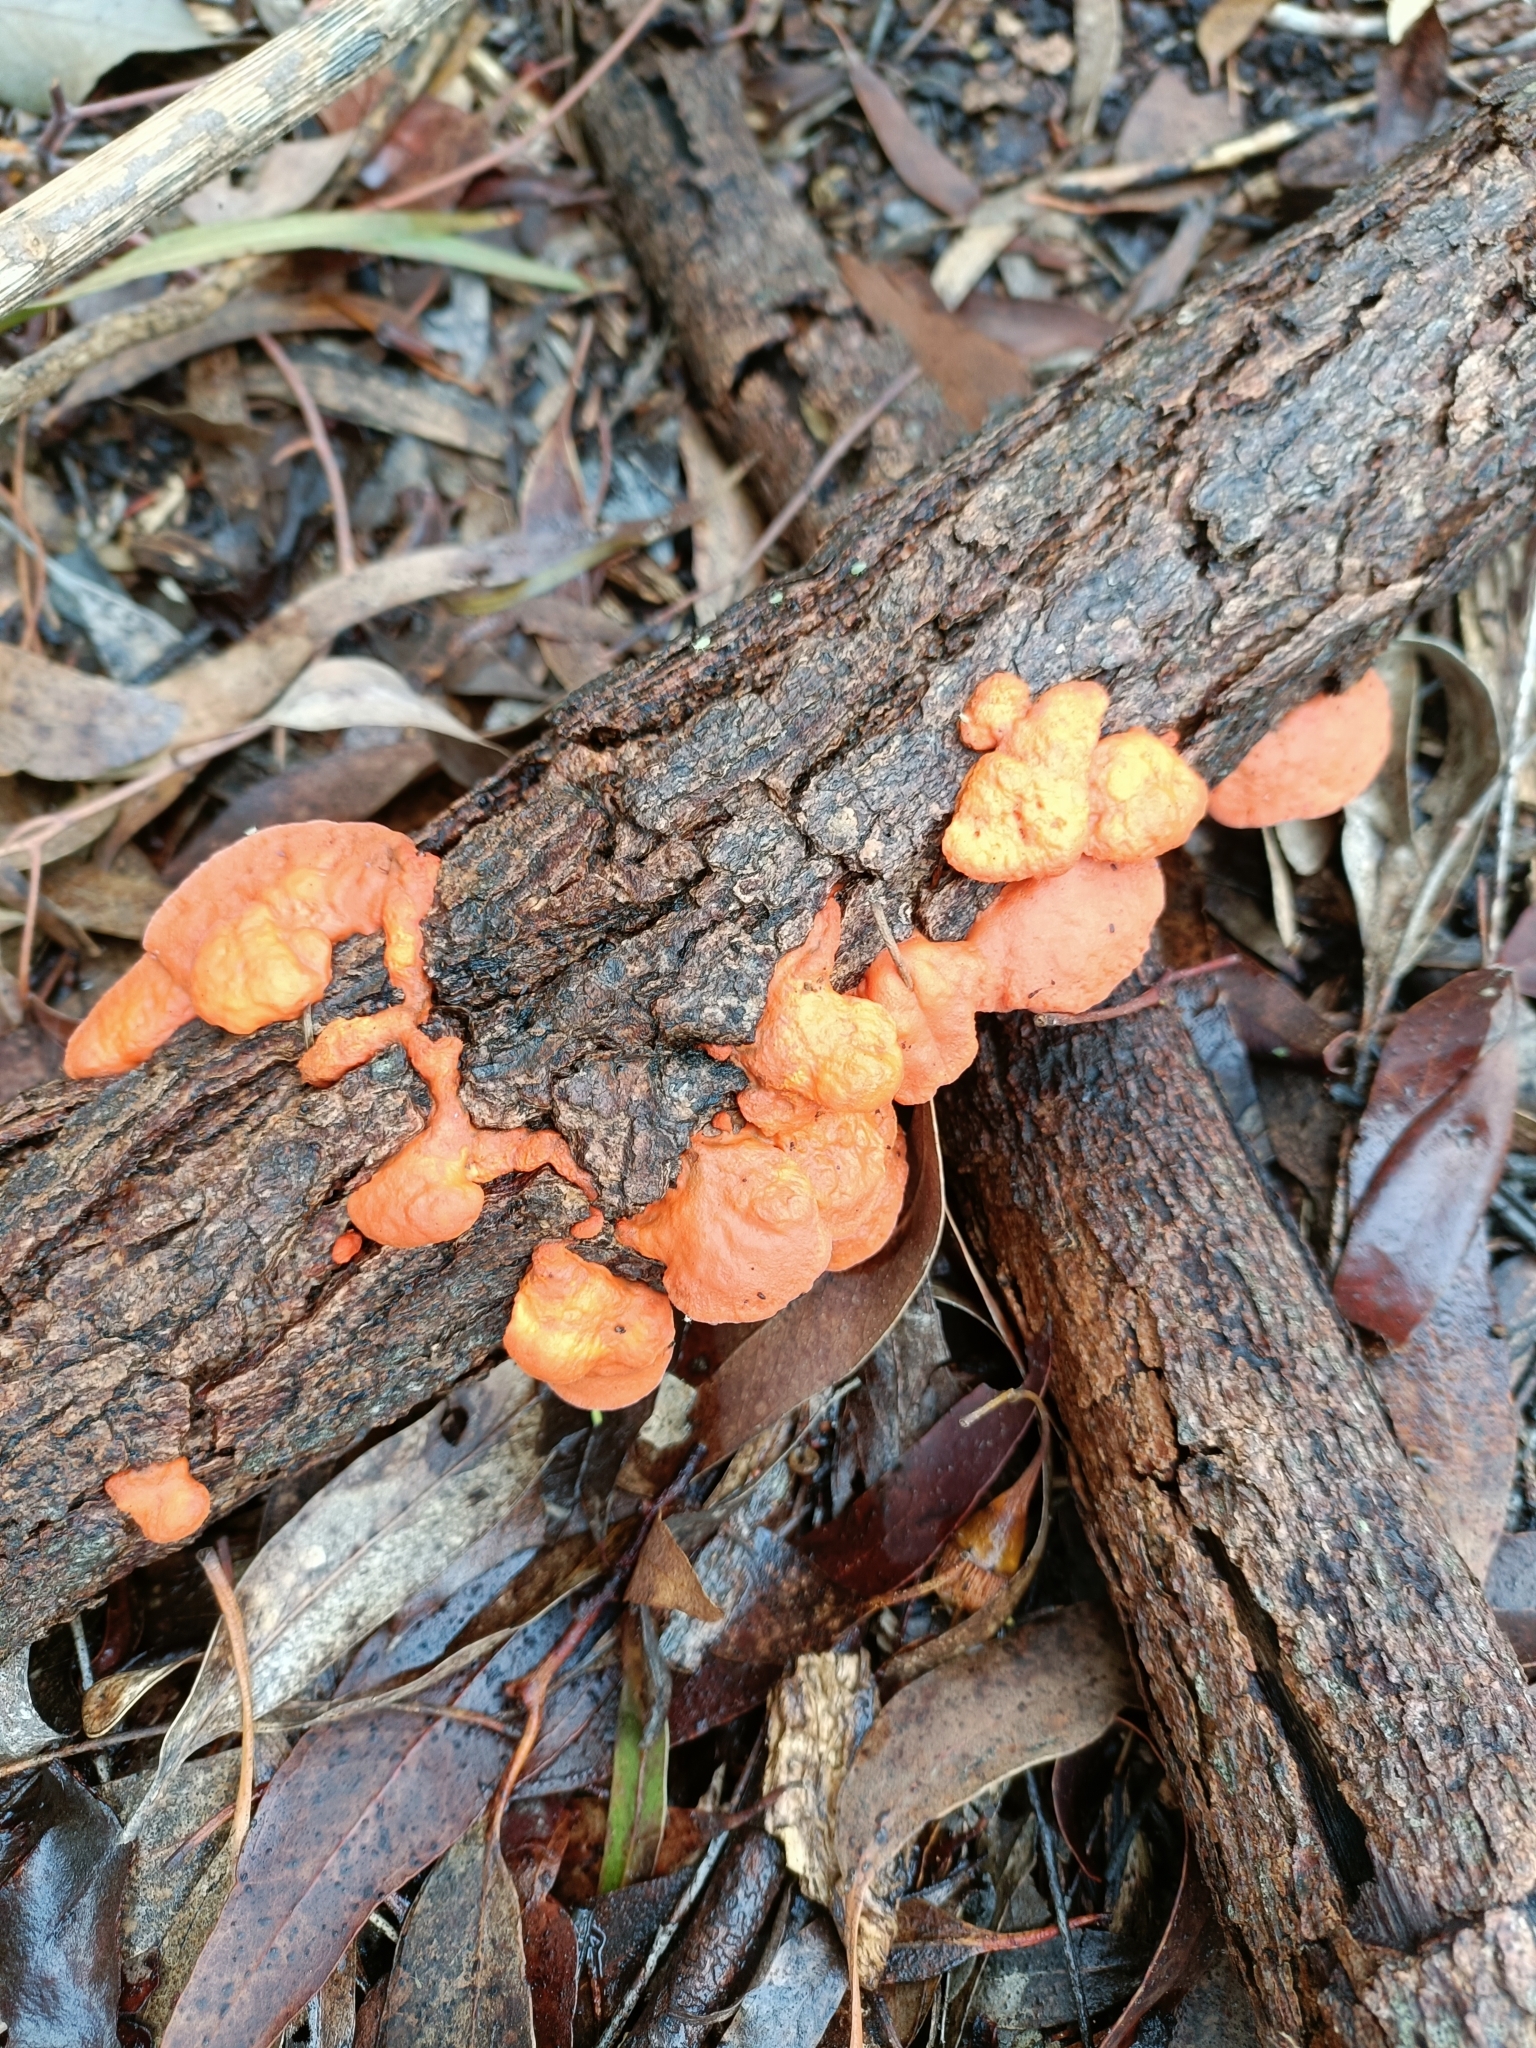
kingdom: Fungi
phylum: Basidiomycota
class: Agaricomycetes
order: Polyporales
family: Polyporaceae
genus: Trametes
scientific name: Trametes coccinea
